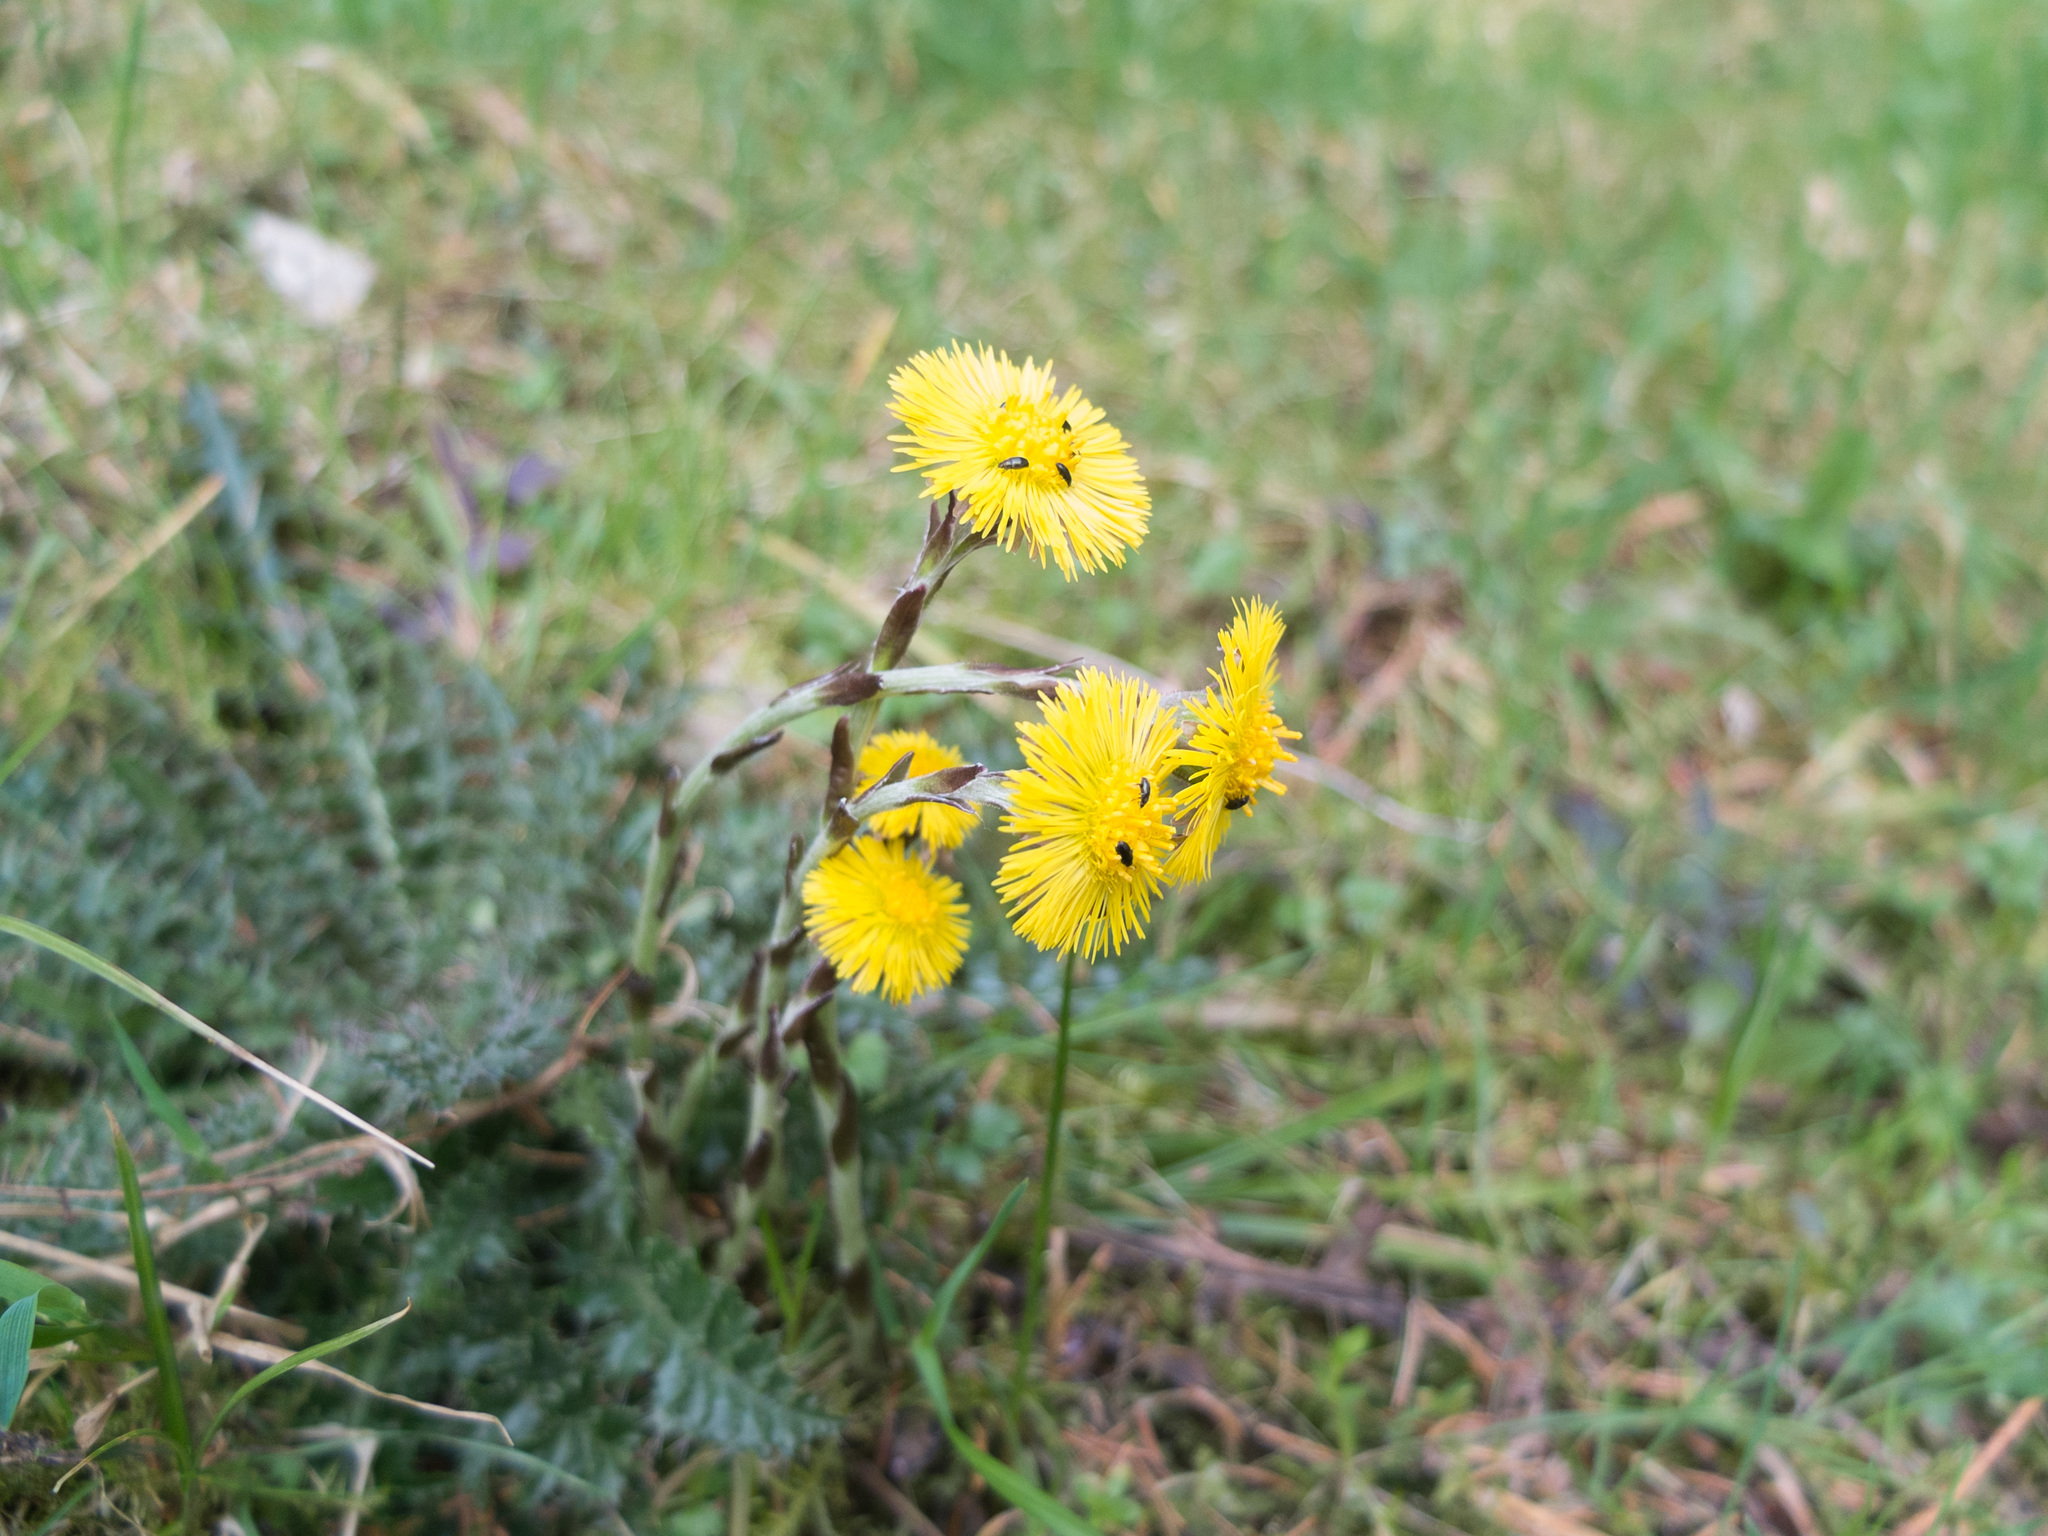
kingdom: Plantae
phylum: Tracheophyta
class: Magnoliopsida
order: Asterales
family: Asteraceae
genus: Tussilago
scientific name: Tussilago farfara
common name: Coltsfoot
